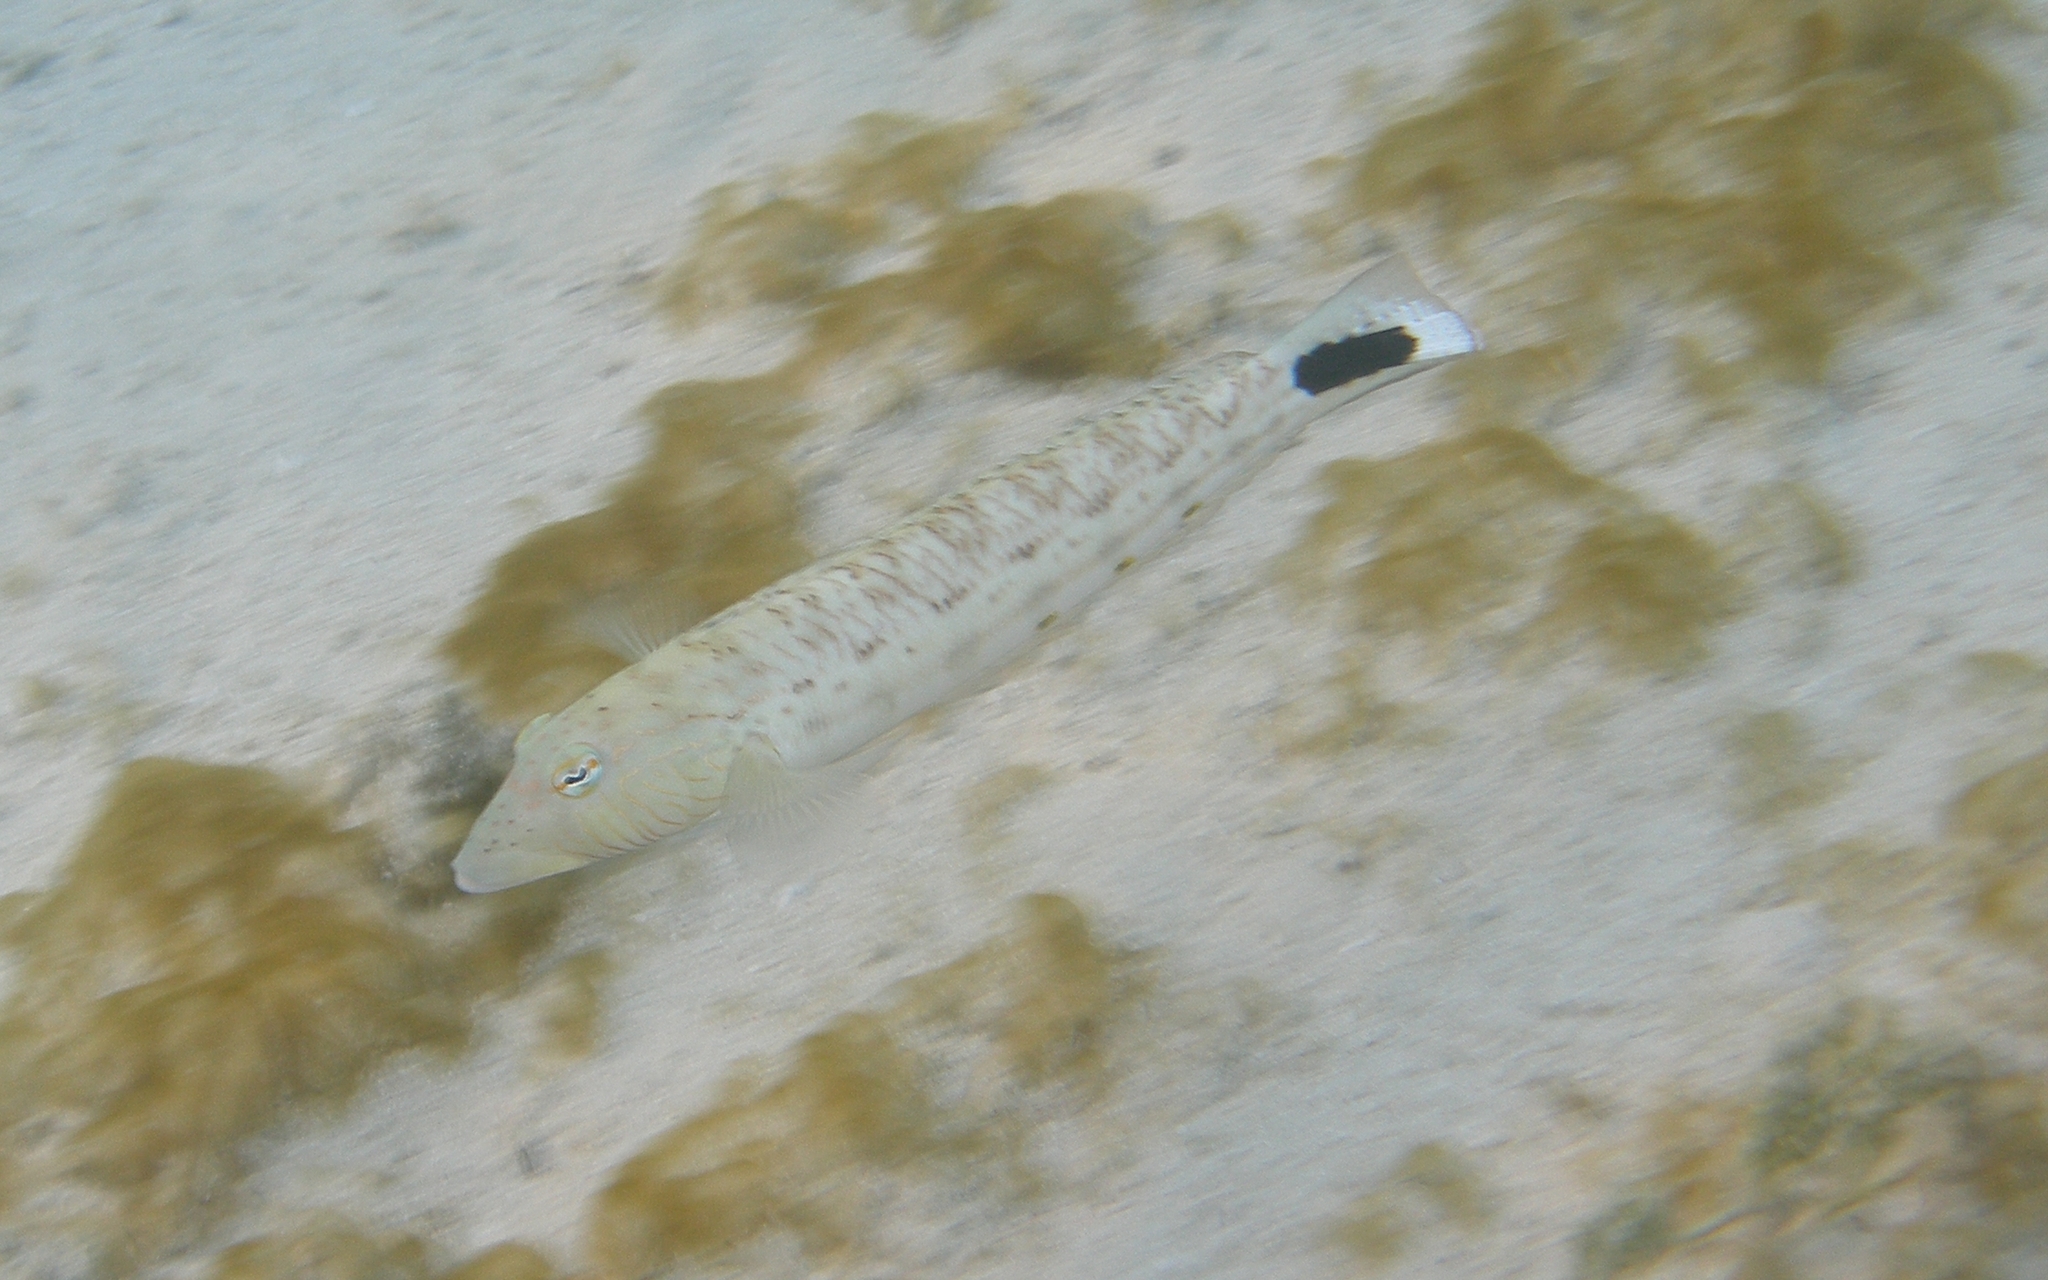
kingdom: Animalia
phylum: Chordata
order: Perciformes
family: Pinguipedidae
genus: Parapercis
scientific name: Parapercis hexophtalma
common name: Speckled sandperch
